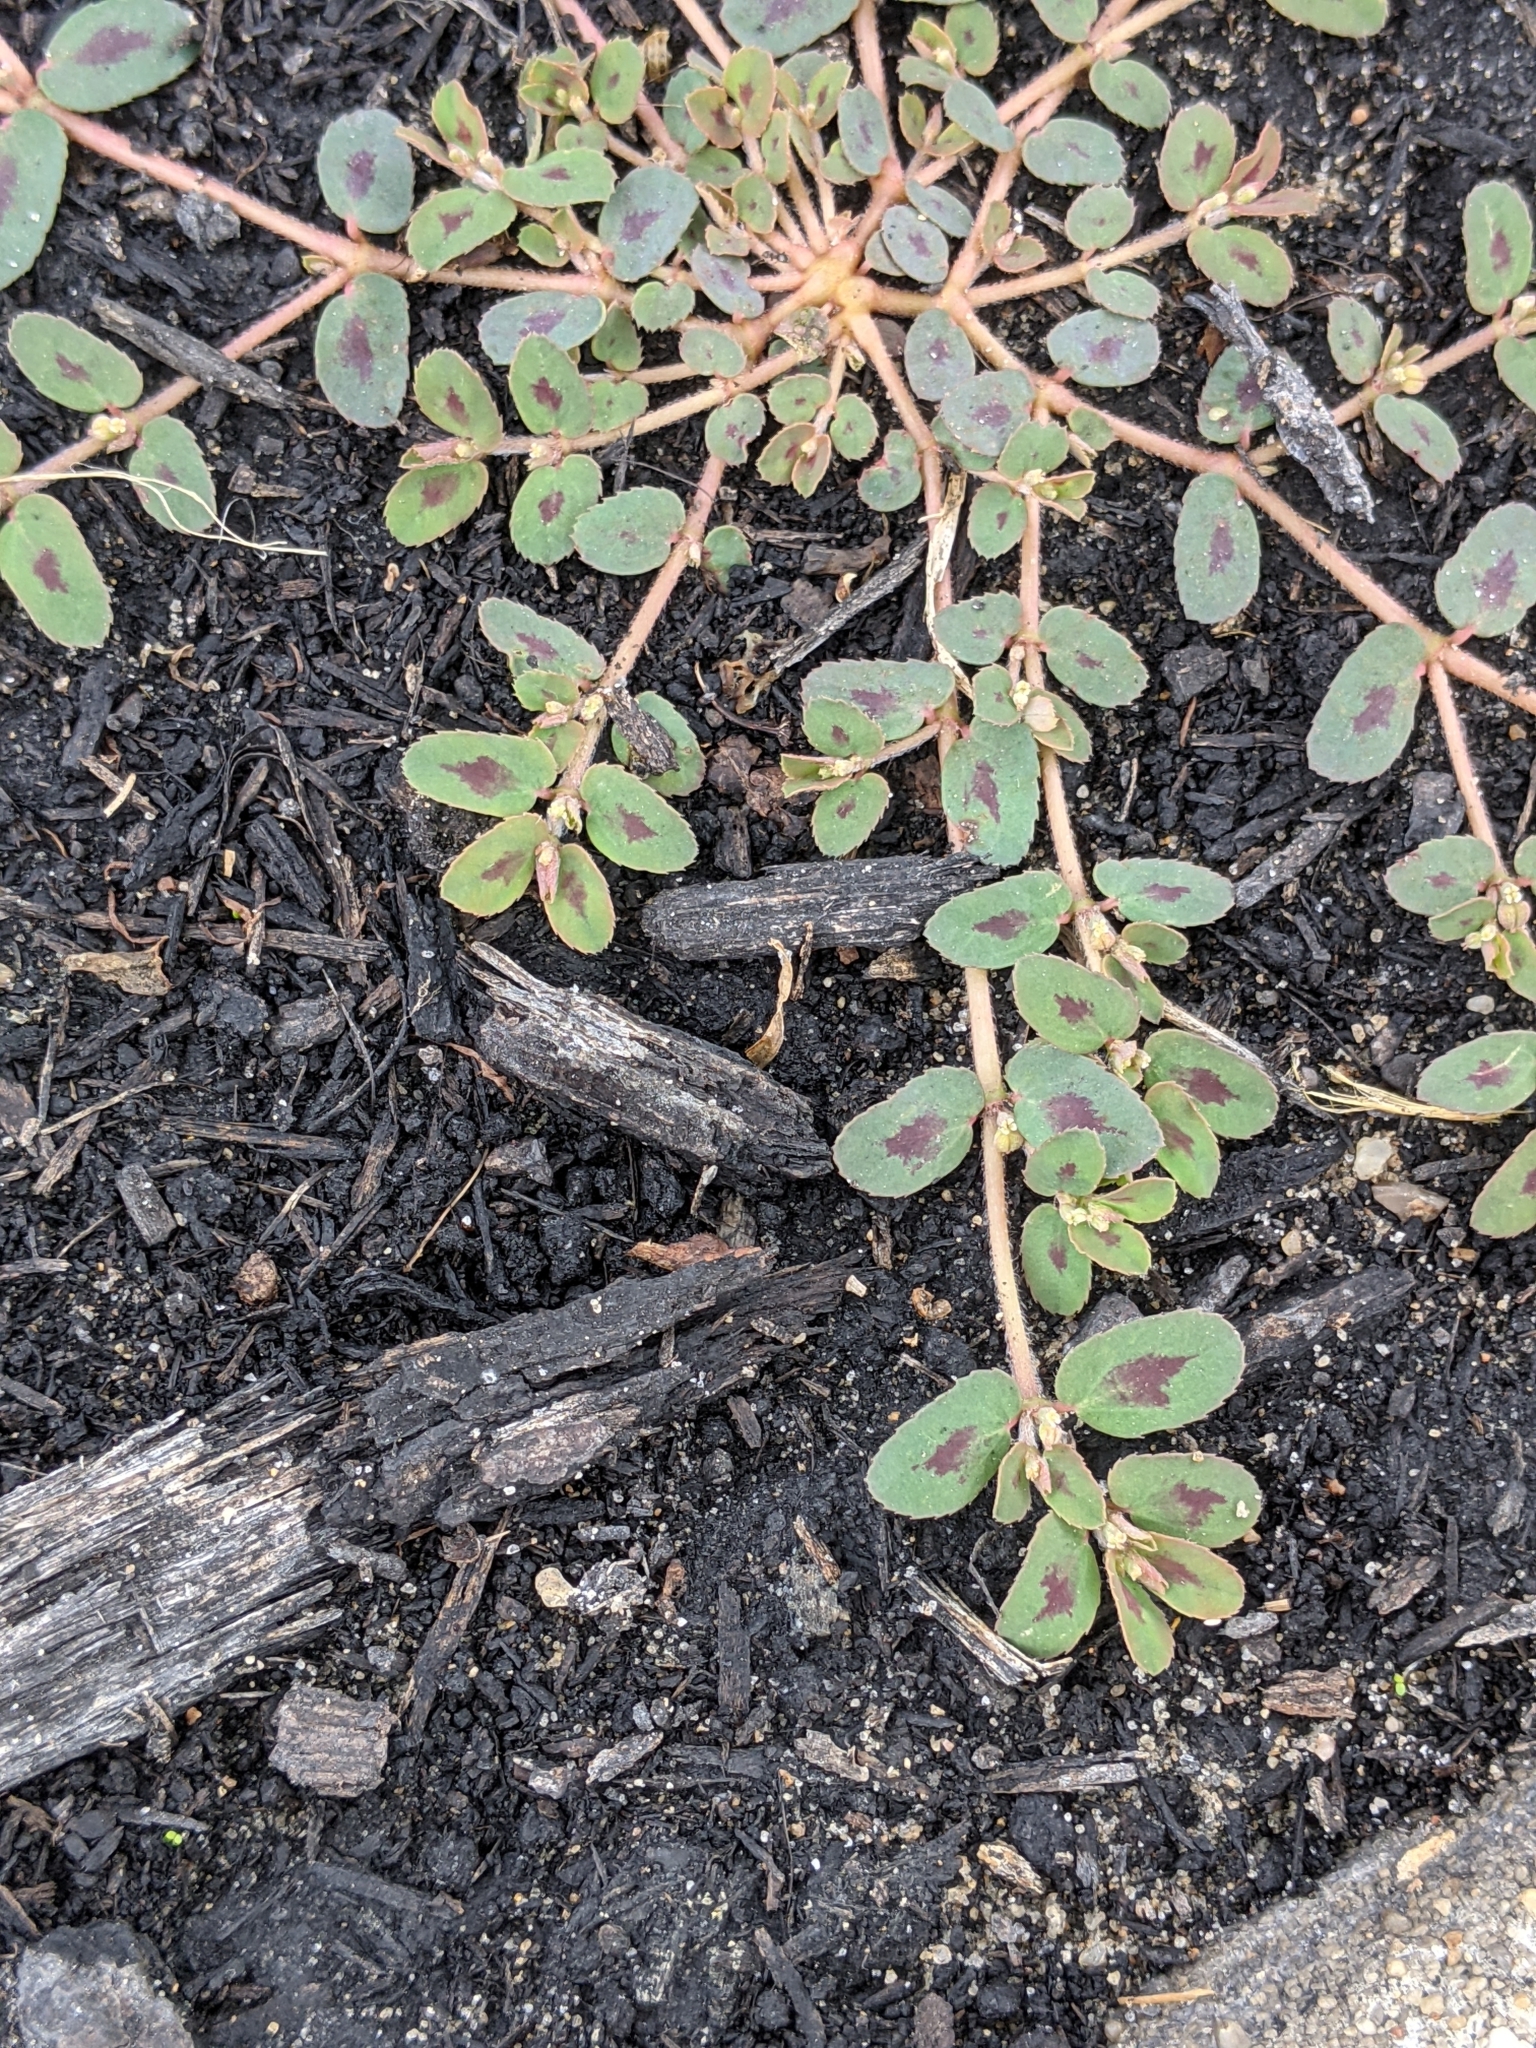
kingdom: Plantae
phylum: Tracheophyta
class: Magnoliopsida
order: Malpighiales
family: Euphorbiaceae
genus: Euphorbia
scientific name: Euphorbia maculata
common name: Spotted spurge
